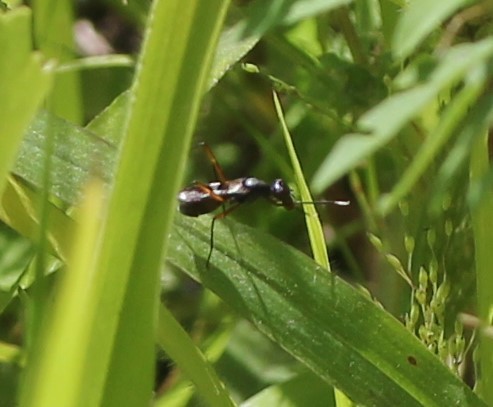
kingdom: Animalia
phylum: Arthropoda
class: Insecta
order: Diptera
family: Micropezidae
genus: Taeniaptera
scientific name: Taeniaptera trivittata
